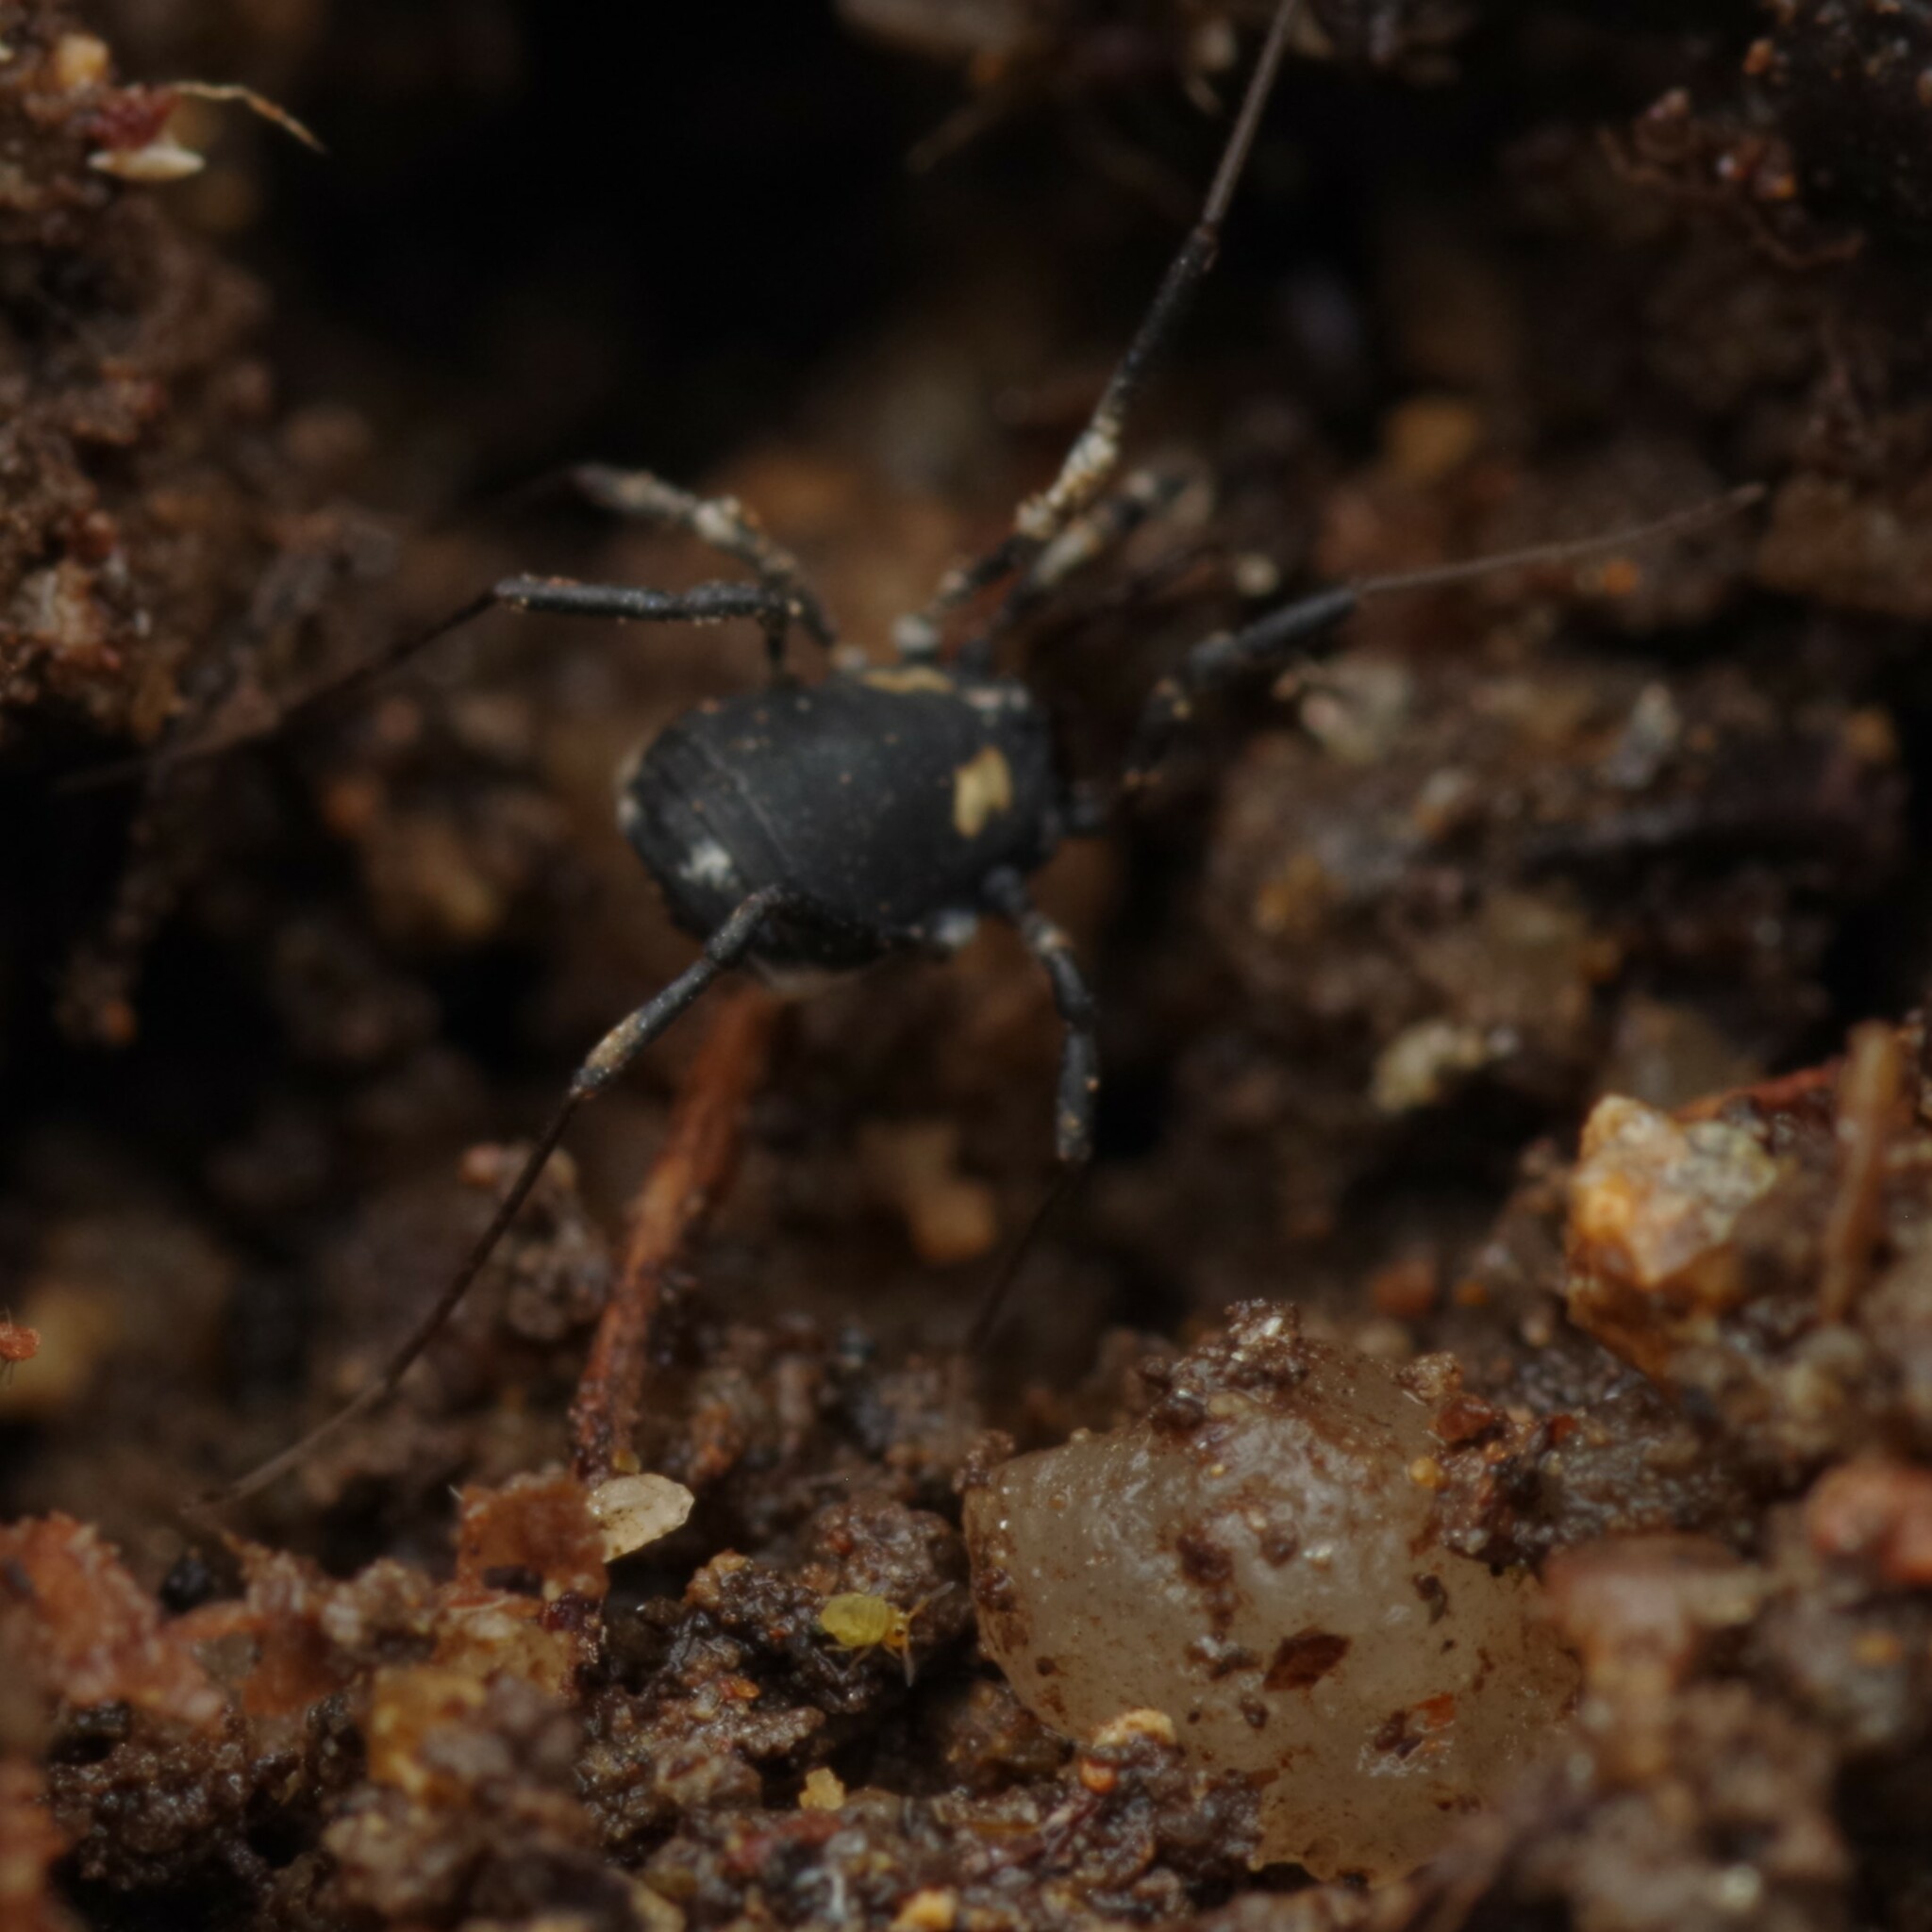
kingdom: Animalia
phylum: Arthropoda
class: Arachnida
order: Opiliones
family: Nemastomatidae
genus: Nemastoma
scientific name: Nemastoma bimaculatum
